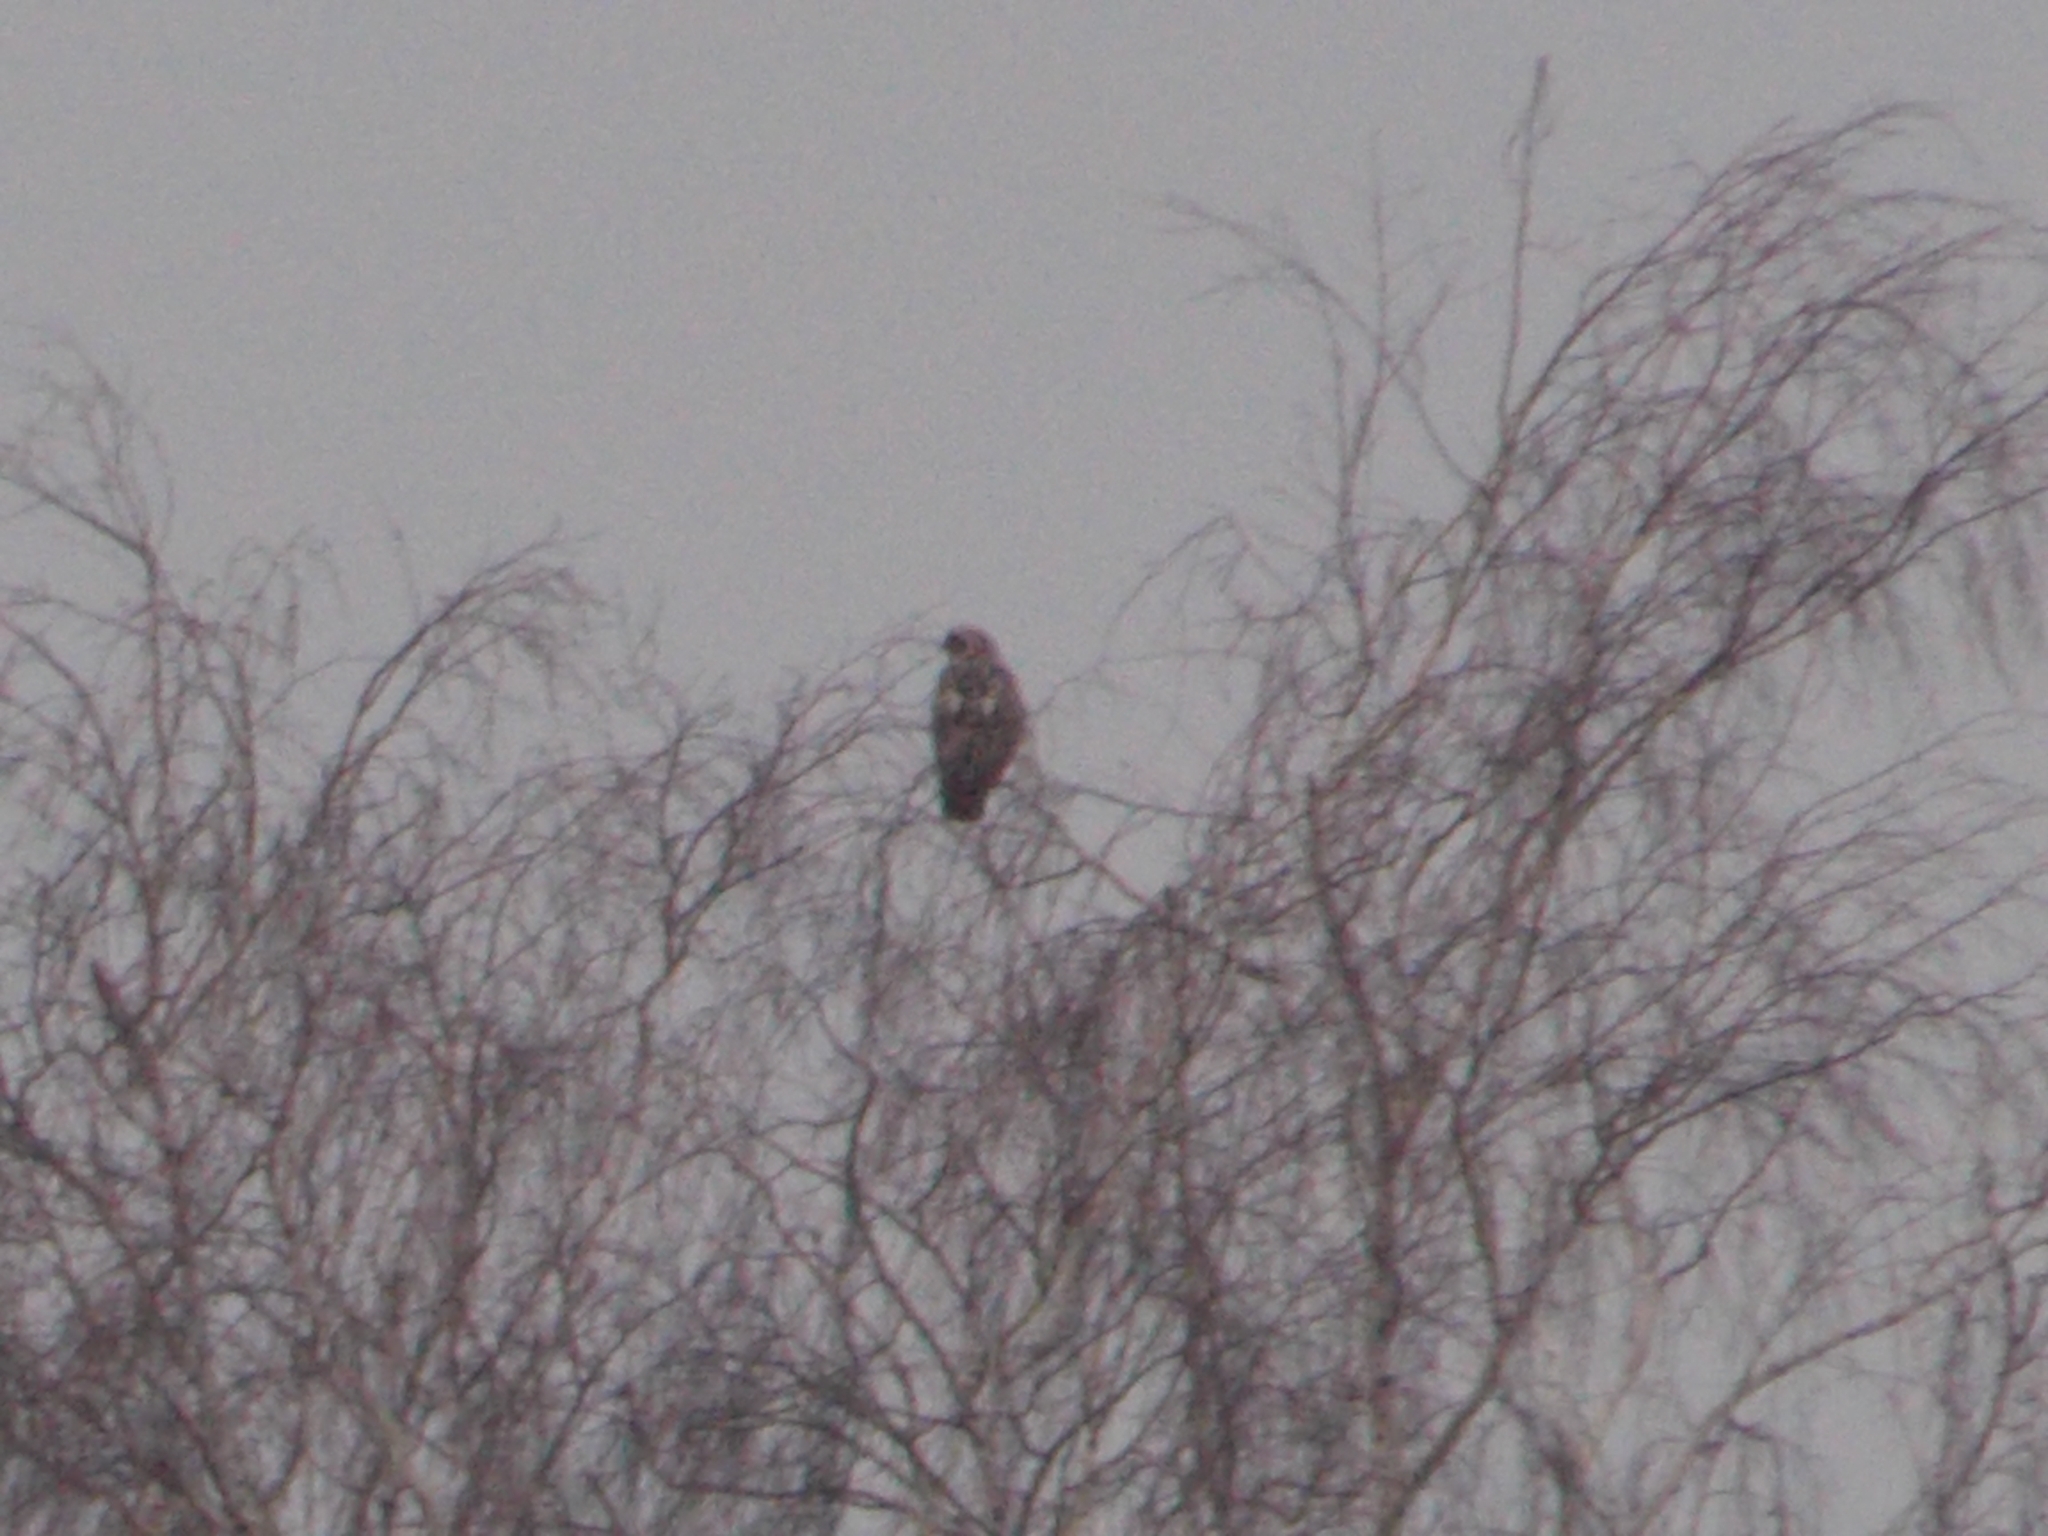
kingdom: Animalia
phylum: Chordata
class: Aves
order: Accipitriformes
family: Accipitridae
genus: Buteo
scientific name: Buteo lagopus
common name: Rough-legged buzzard
